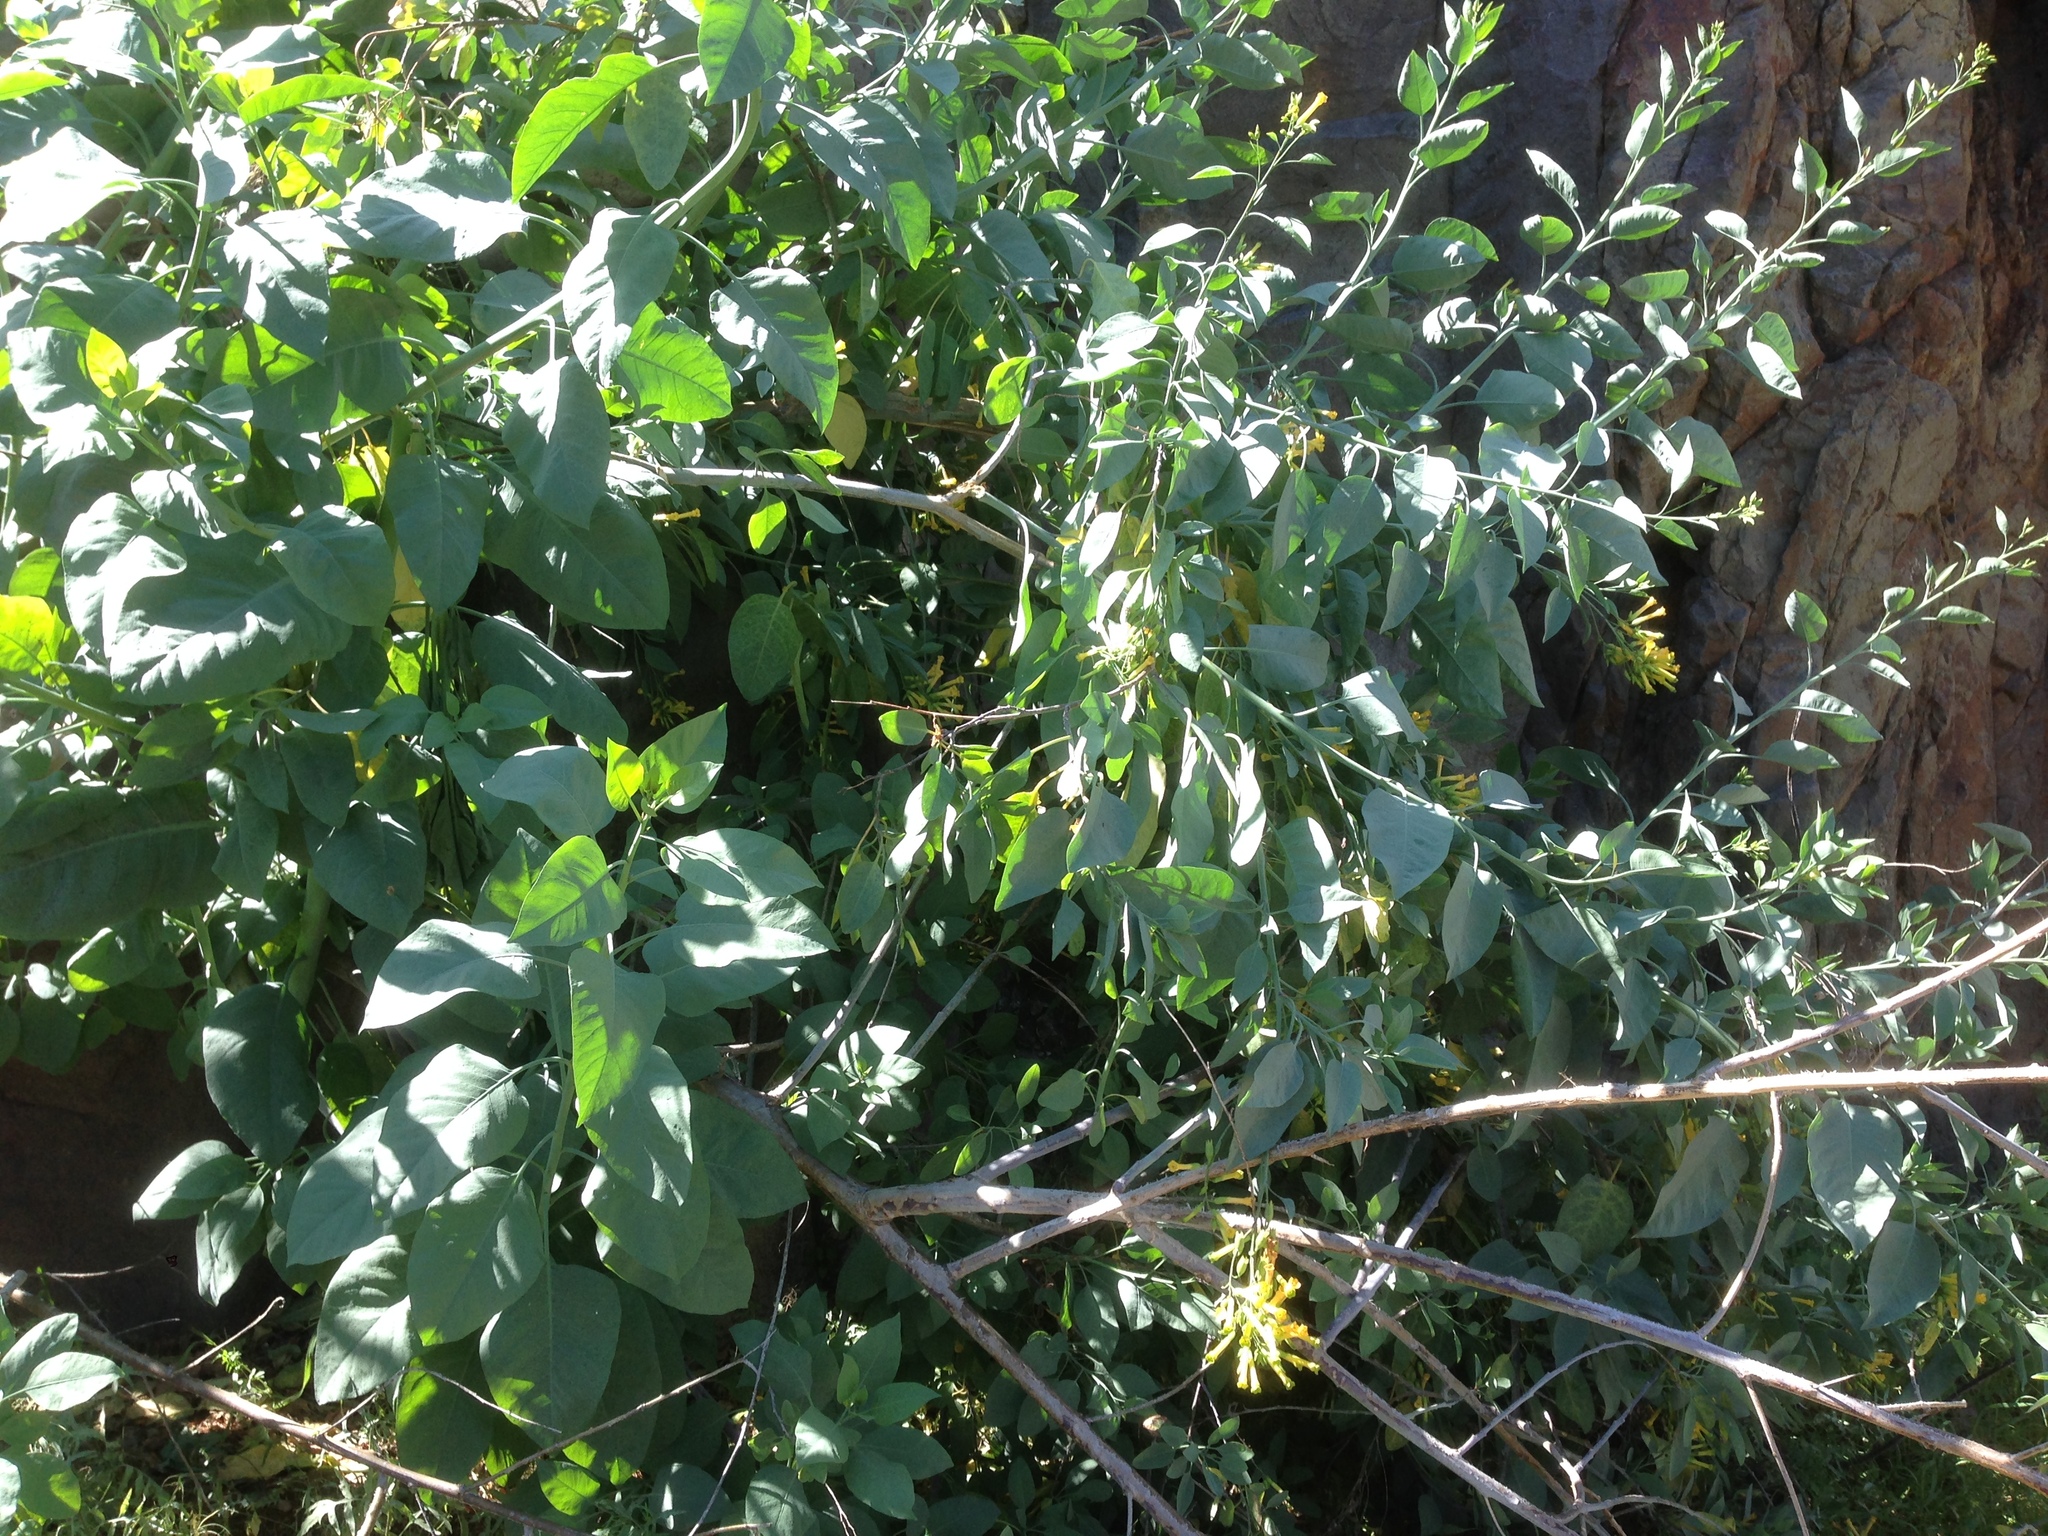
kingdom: Plantae
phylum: Tracheophyta
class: Magnoliopsida
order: Solanales
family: Solanaceae
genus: Nicotiana
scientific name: Nicotiana glauca
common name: Tree tobacco
